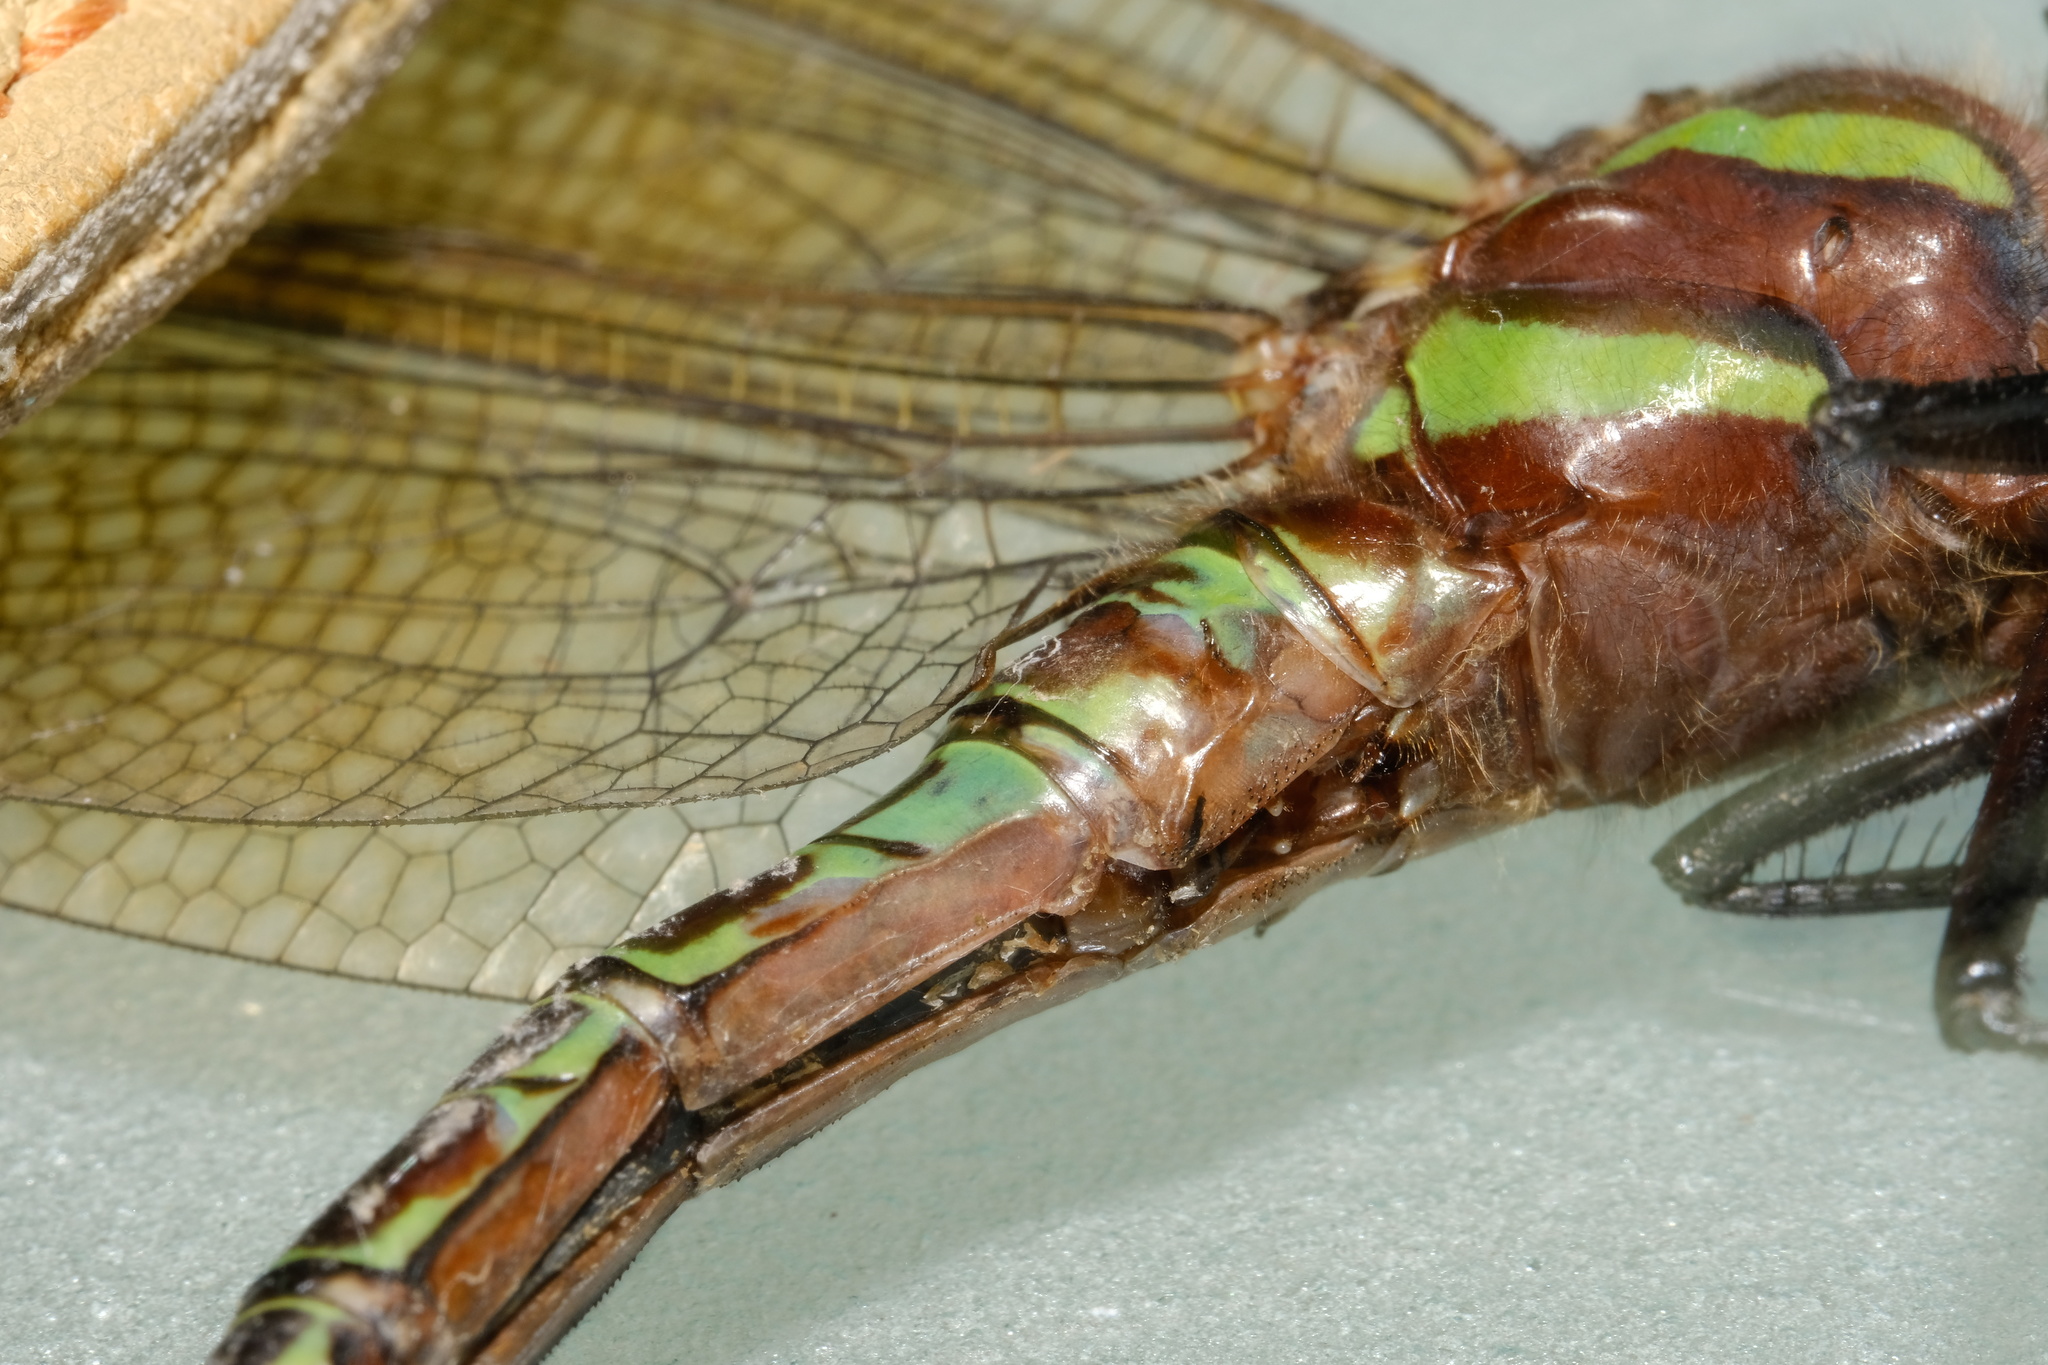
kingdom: Animalia
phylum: Arthropoda
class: Insecta
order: Odonata
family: Aeshnidae
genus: Epiaeschna
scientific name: Epiaeschna heros
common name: Swamp darner
